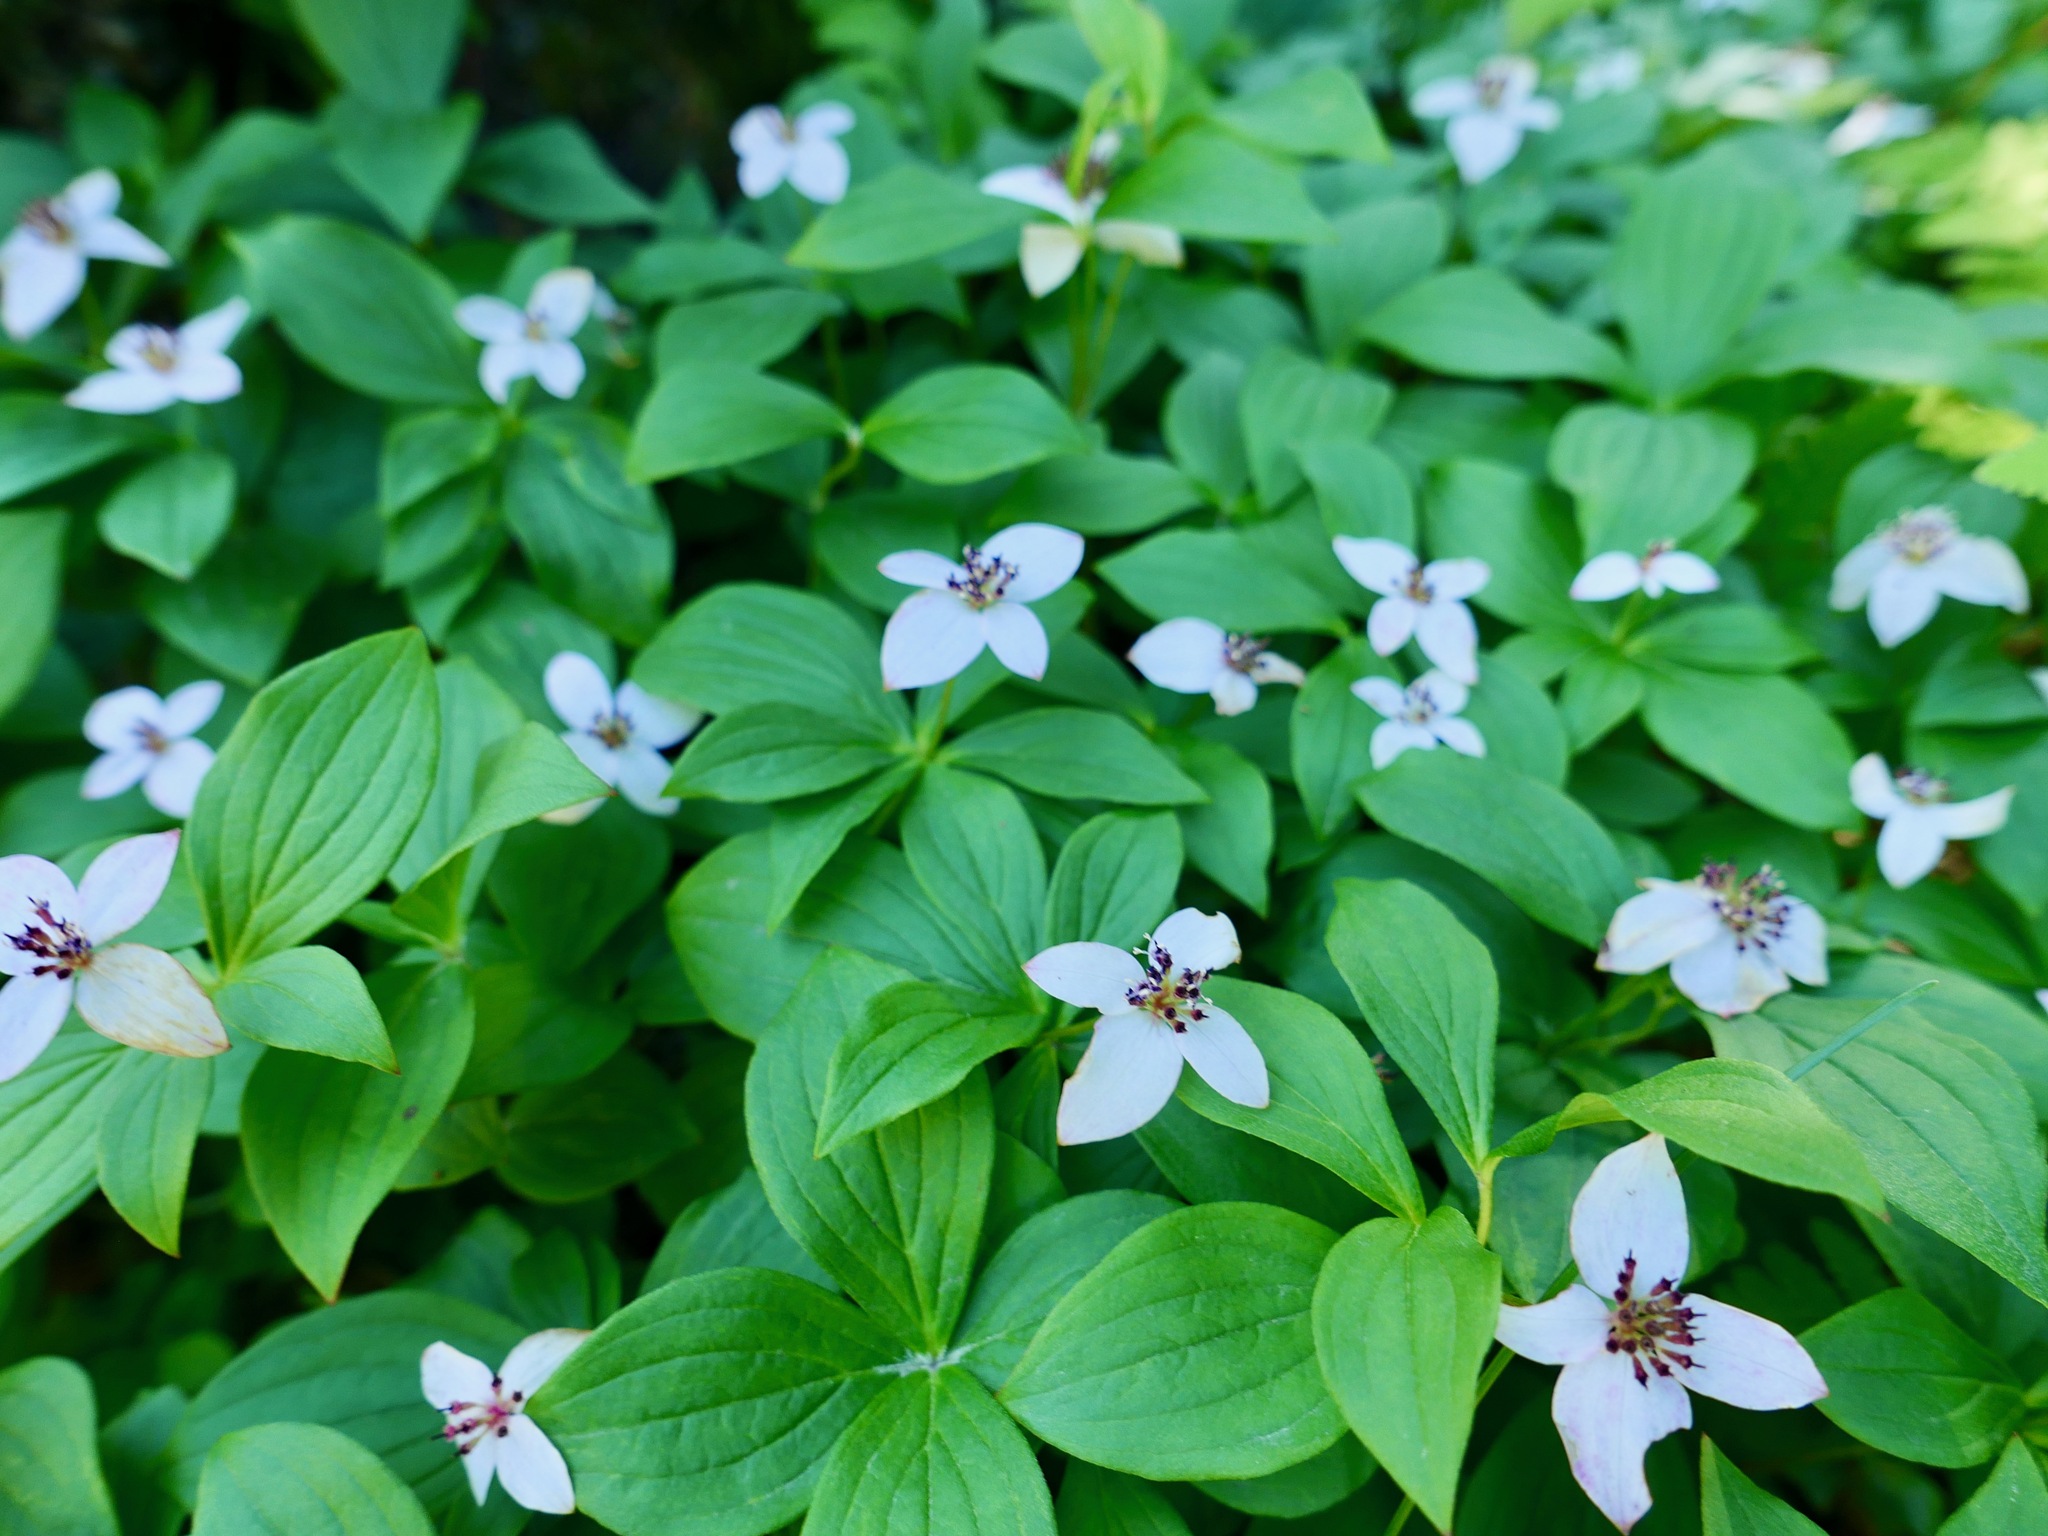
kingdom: Plantae
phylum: Tracheophyta
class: Magnoliopsida
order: Cornales
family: Cornaceae
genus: Cornus
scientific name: Cornus unalaschkensis
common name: Alaska bunchberry
